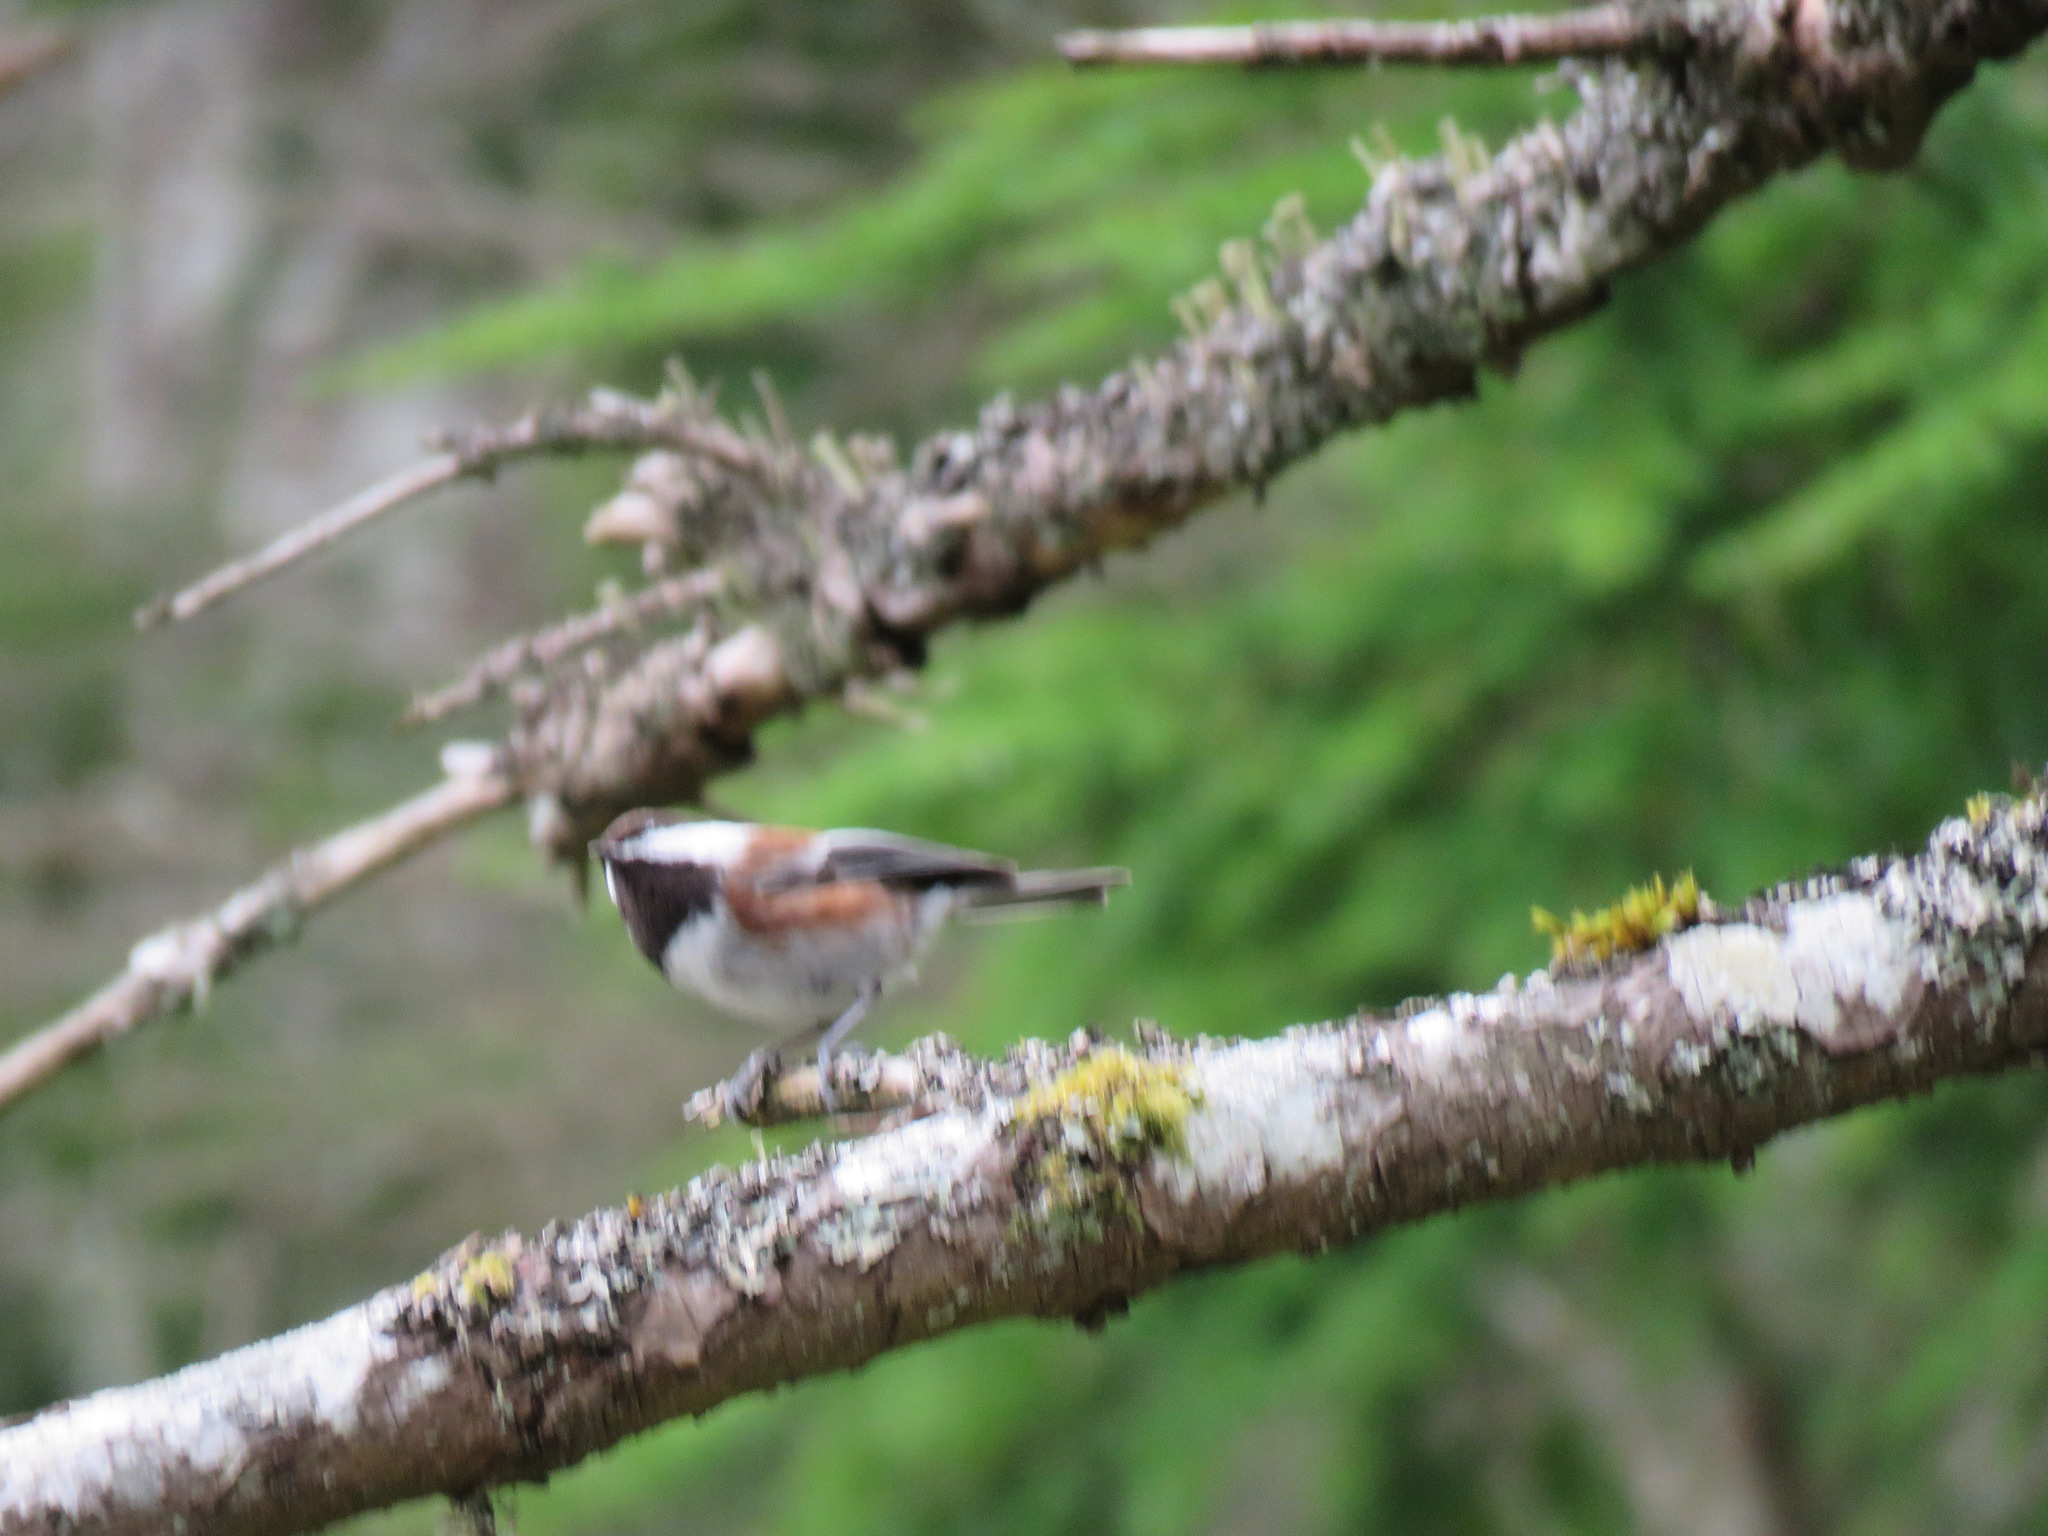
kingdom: Animalia
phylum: Chordata
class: Aves
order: Passeriformes
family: Paridae
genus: Poecile
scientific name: Poecile rufescens
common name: Chestnut-backed chickadee
